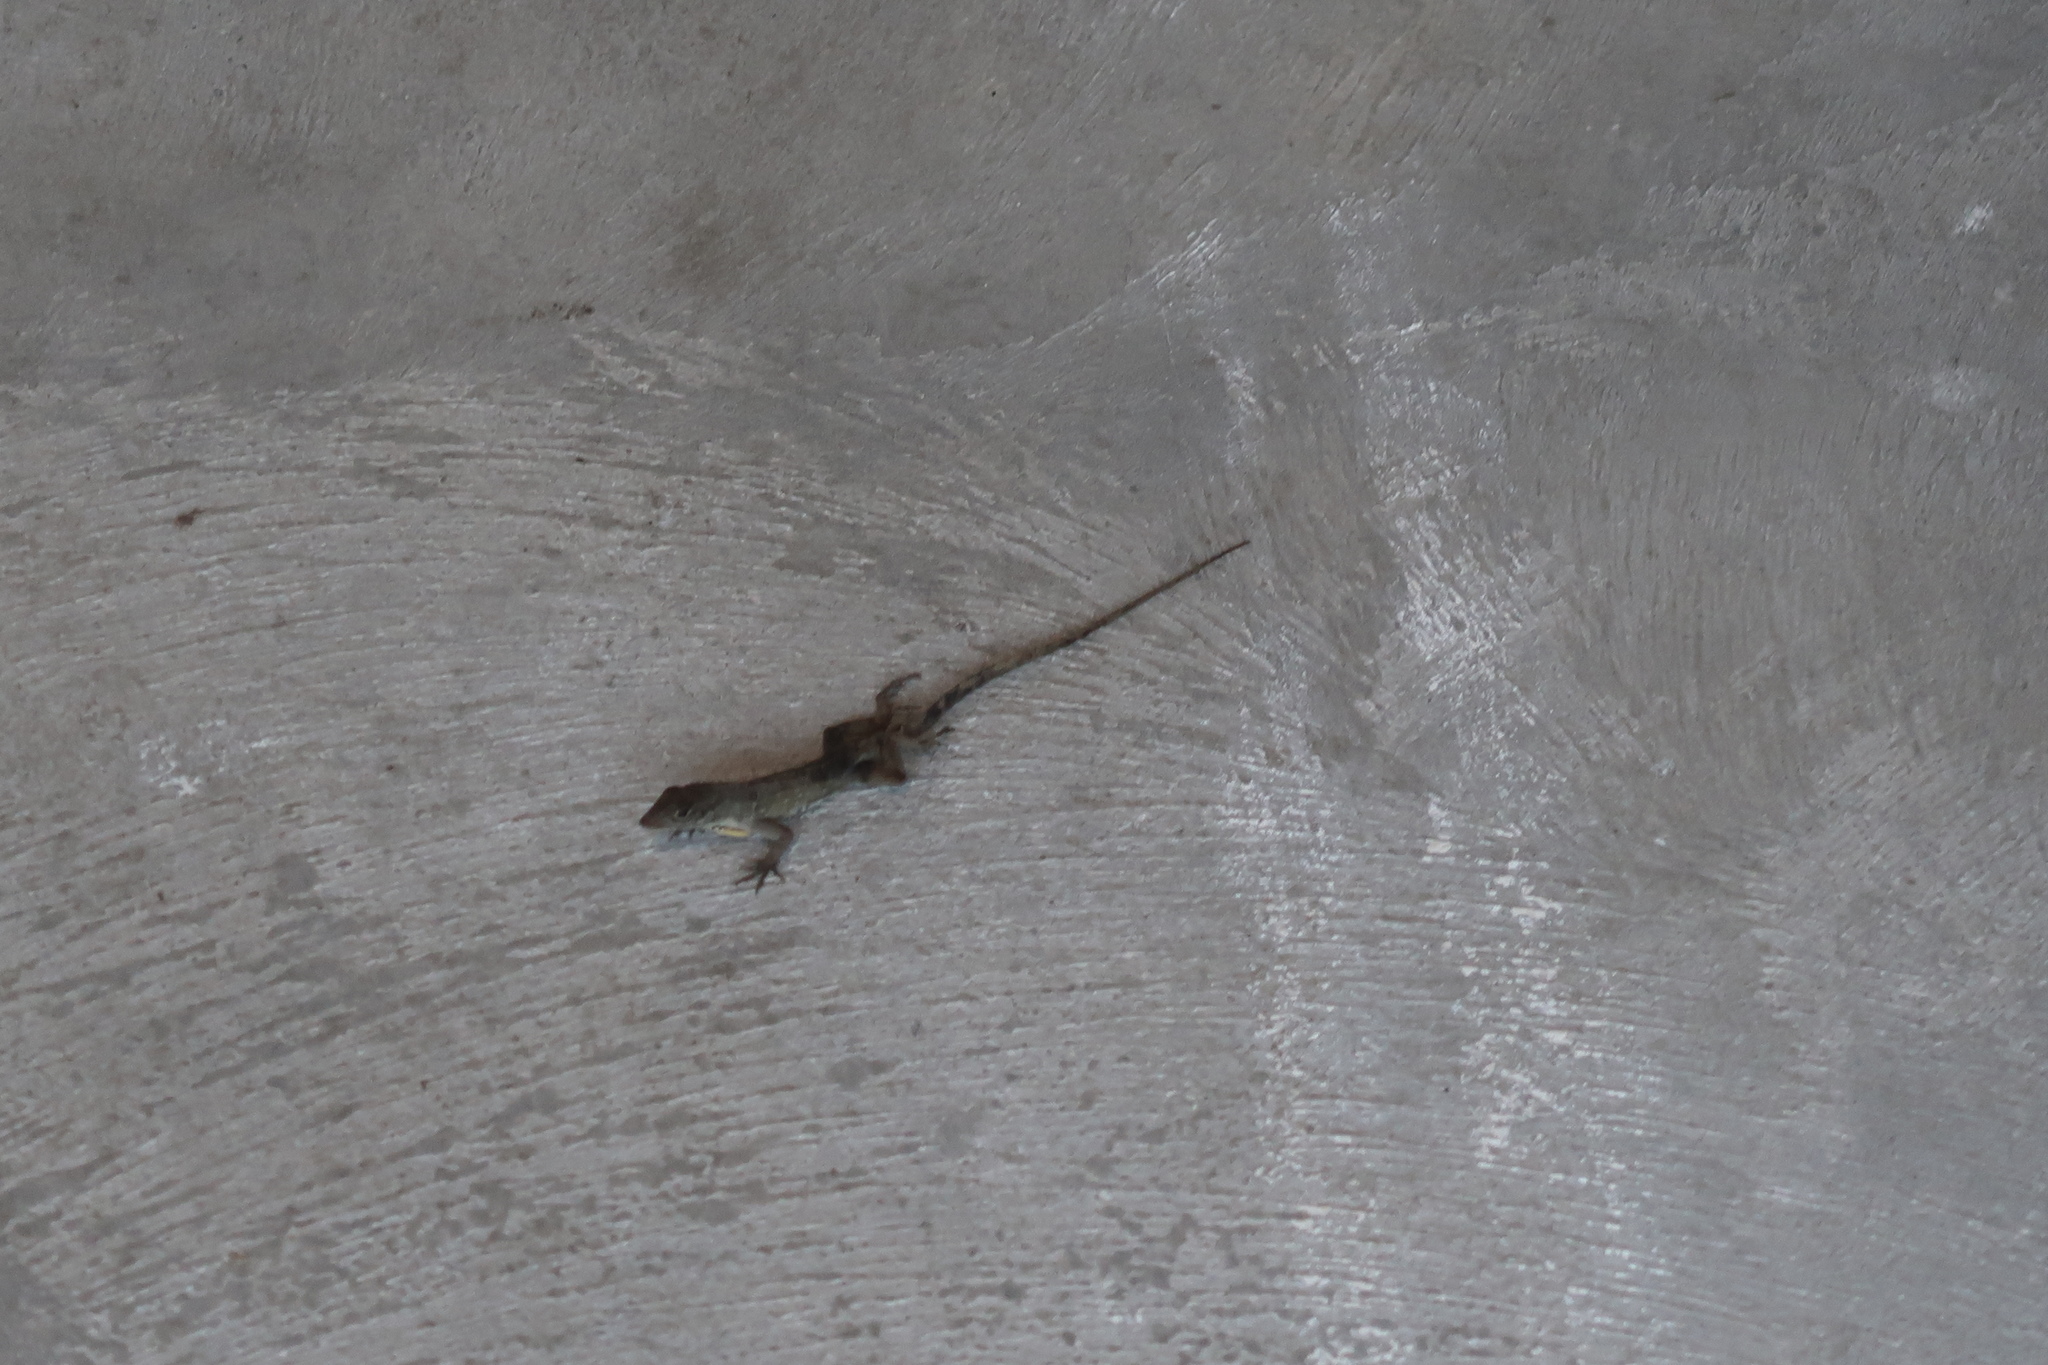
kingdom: Animalia
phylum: Chordata
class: Squamata
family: Dactyloidae
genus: Anolis
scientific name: Anolis sagrei
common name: Brown anole
